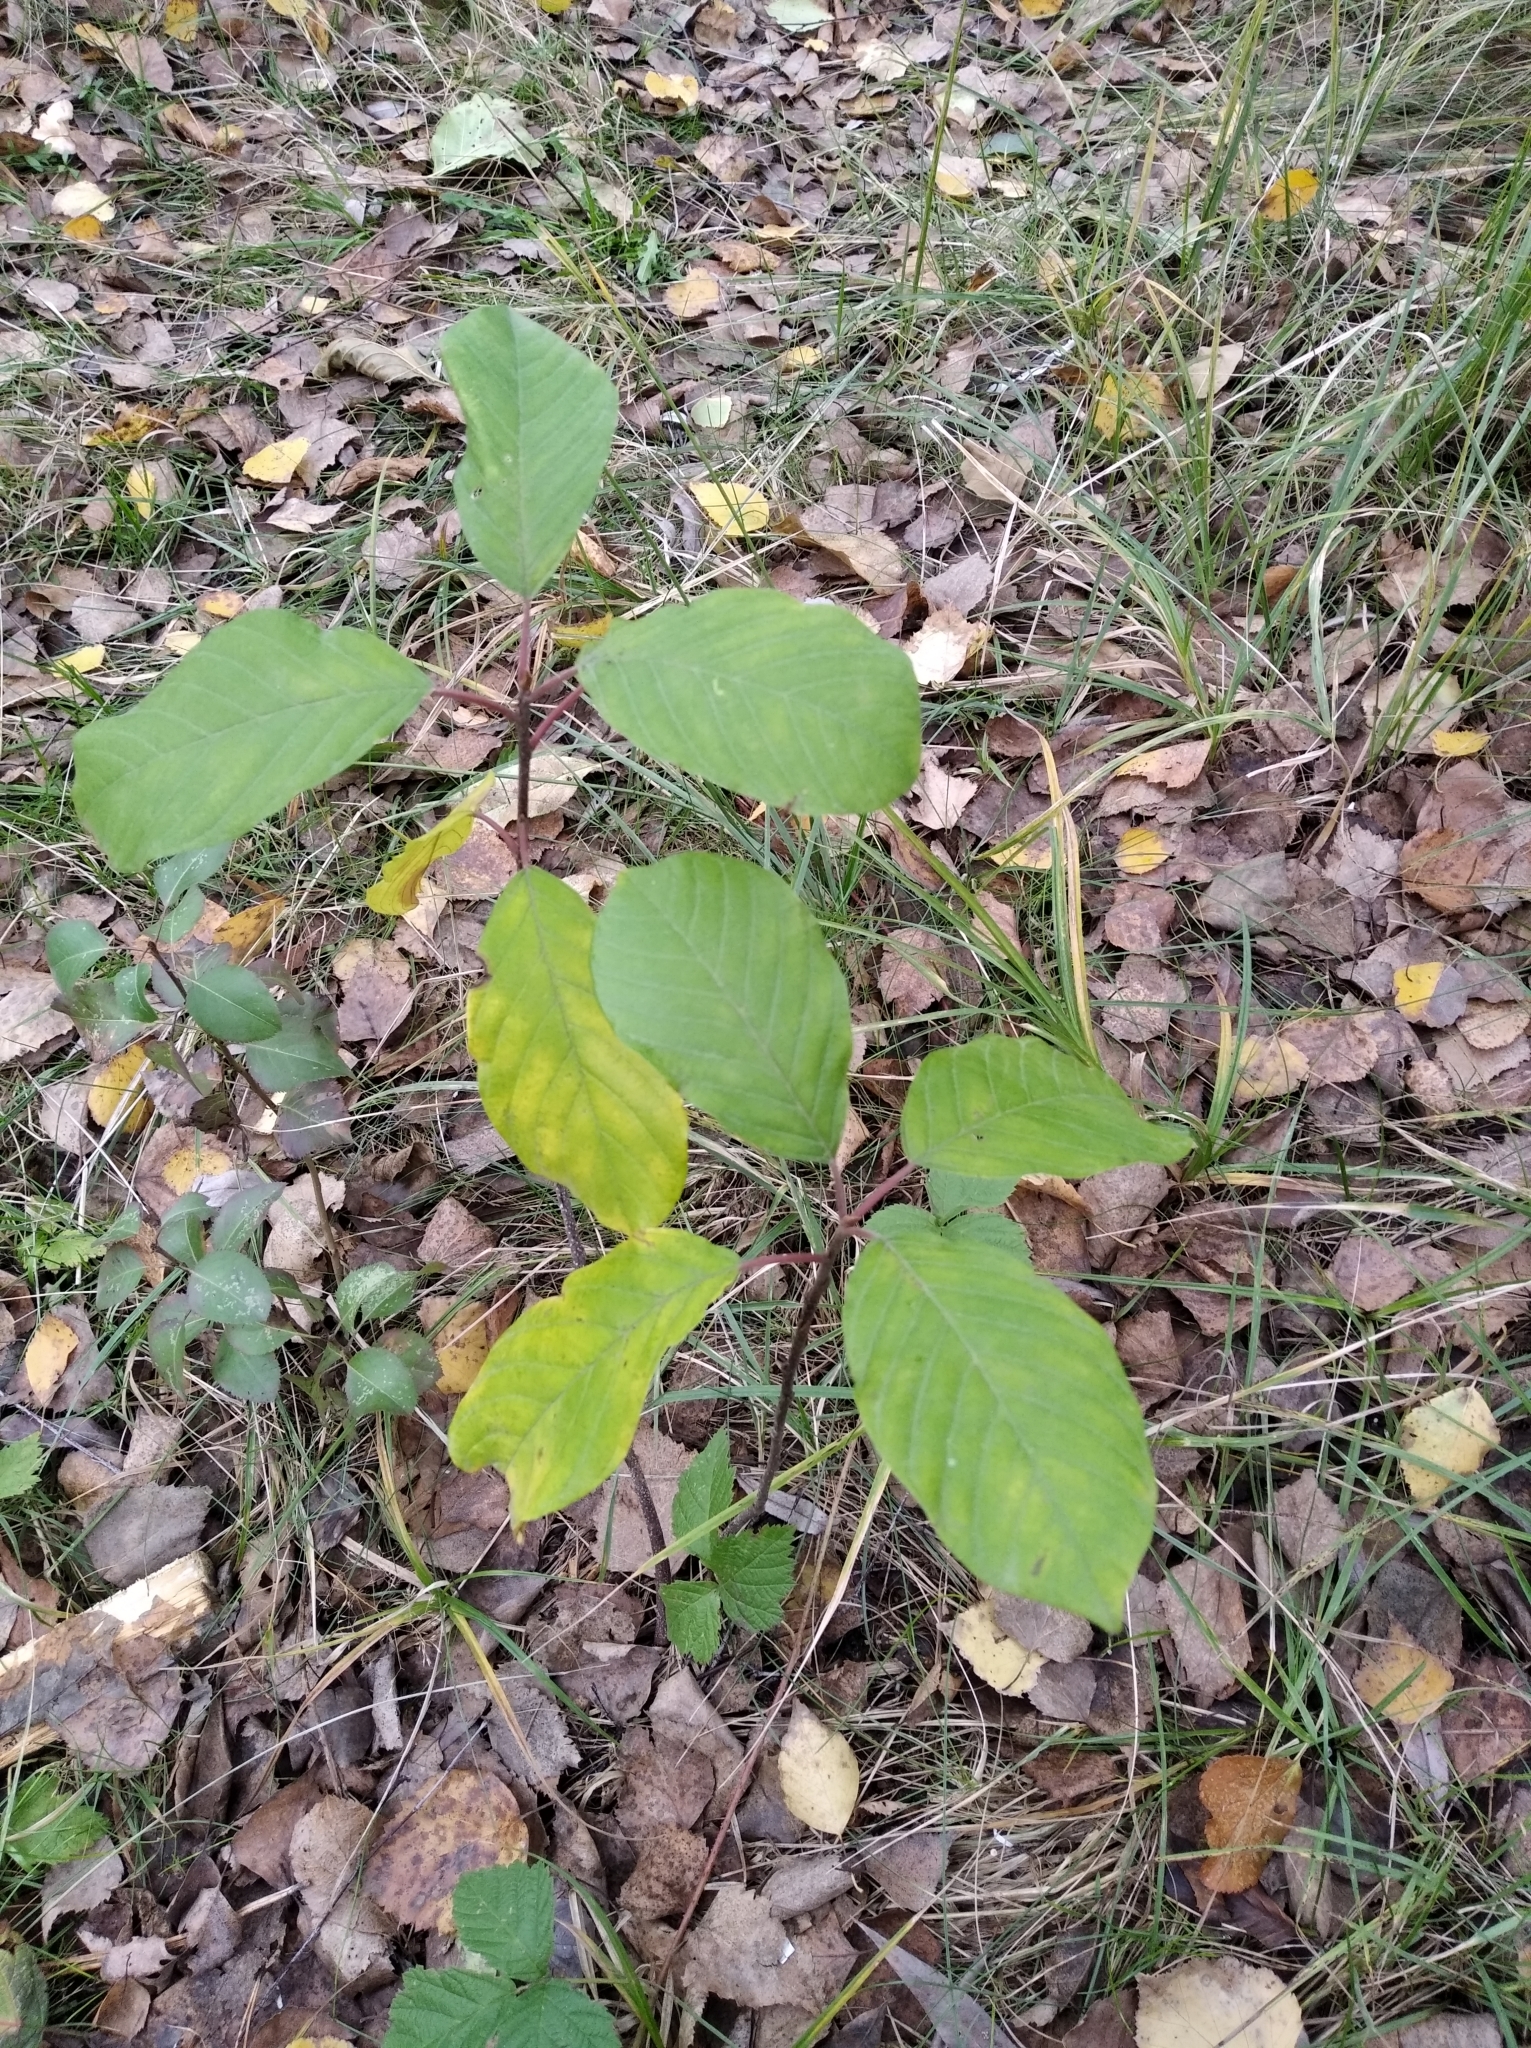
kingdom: Plantae
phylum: Tracheophyta
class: Magnoliopsida
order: Rosales
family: Rhamnaceae
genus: Frangula
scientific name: Frangula alnus
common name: Alder buckthorn
